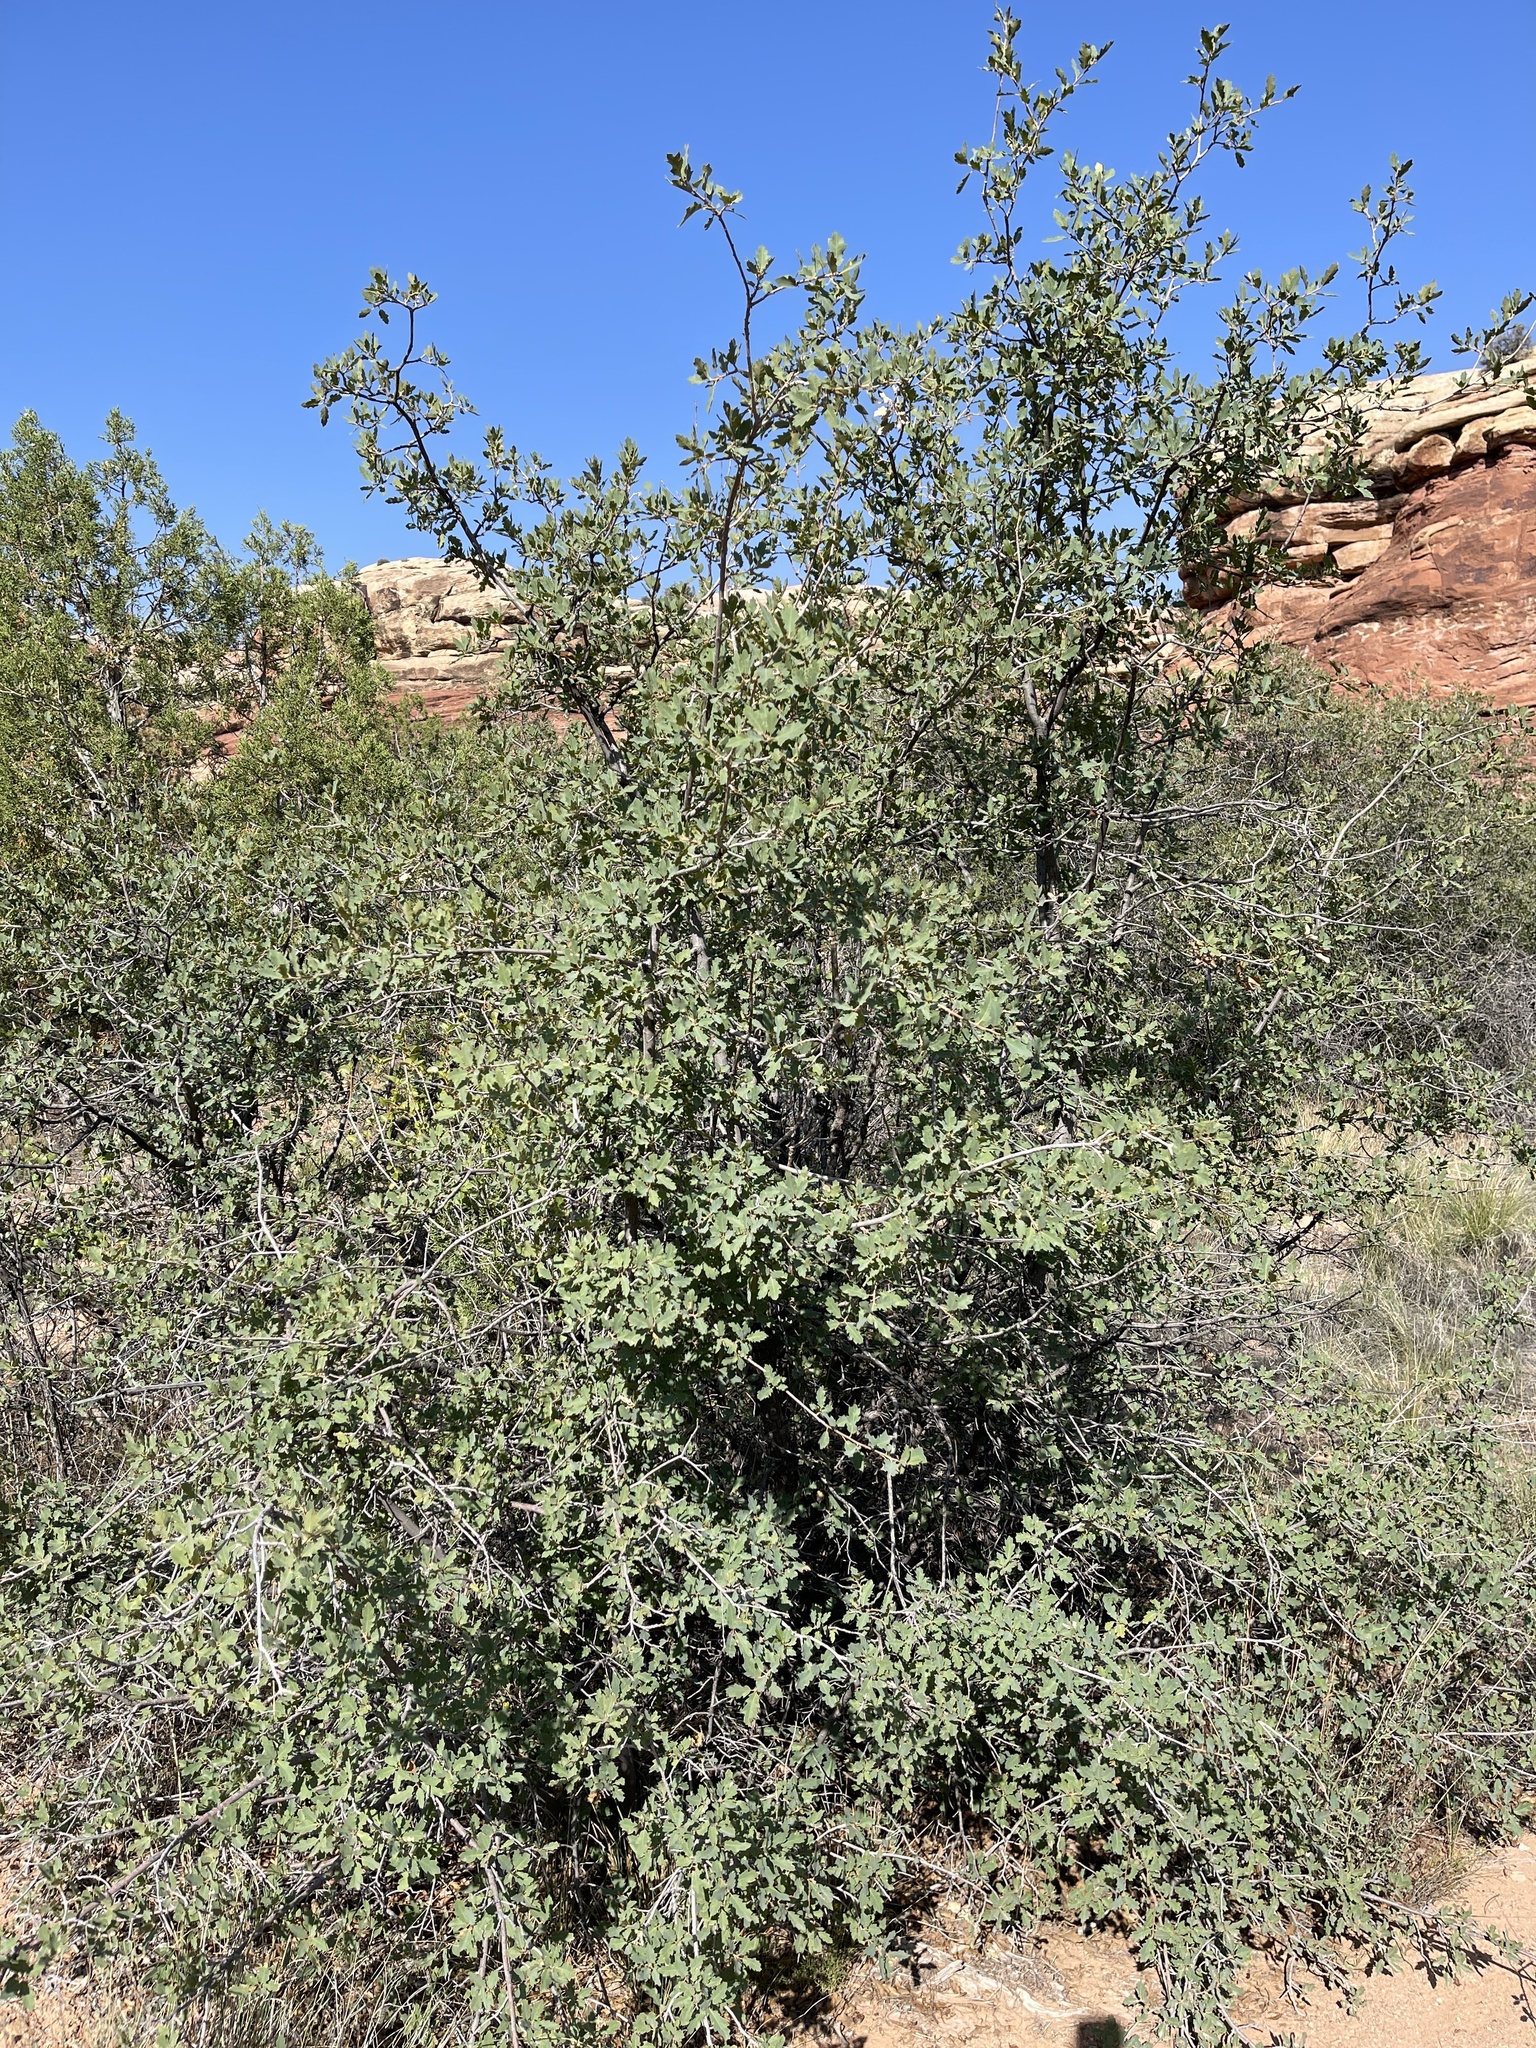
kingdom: Plantae
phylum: Tracheophyta
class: Magnoliopsida
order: Fagales
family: Fagaceae
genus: Quercus
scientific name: Quercus turbinella
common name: Sonoran scrub oak
